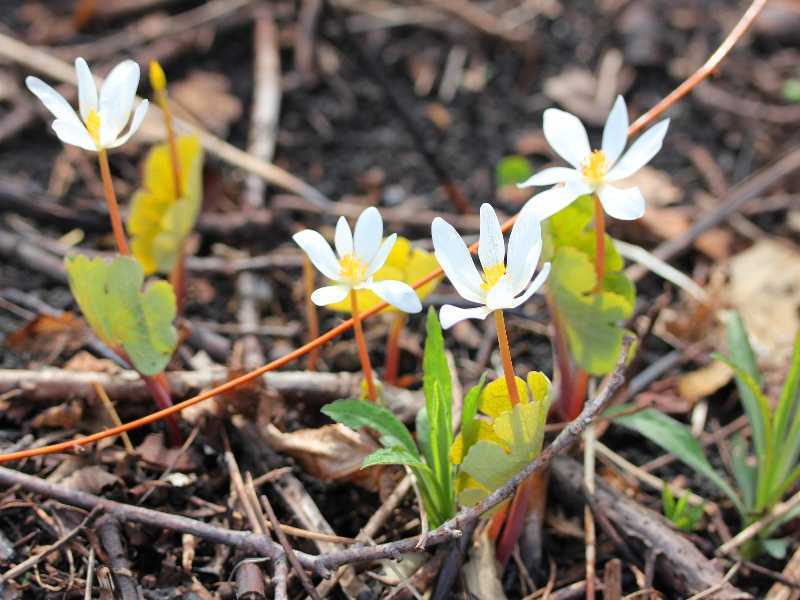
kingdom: Plantae
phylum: Tracheophyta
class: Magnoliopsida
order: Ranunculales
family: Papaveraceae
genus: Sanguinaria
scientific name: Sanguinaria canadensis
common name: Bloodroot
